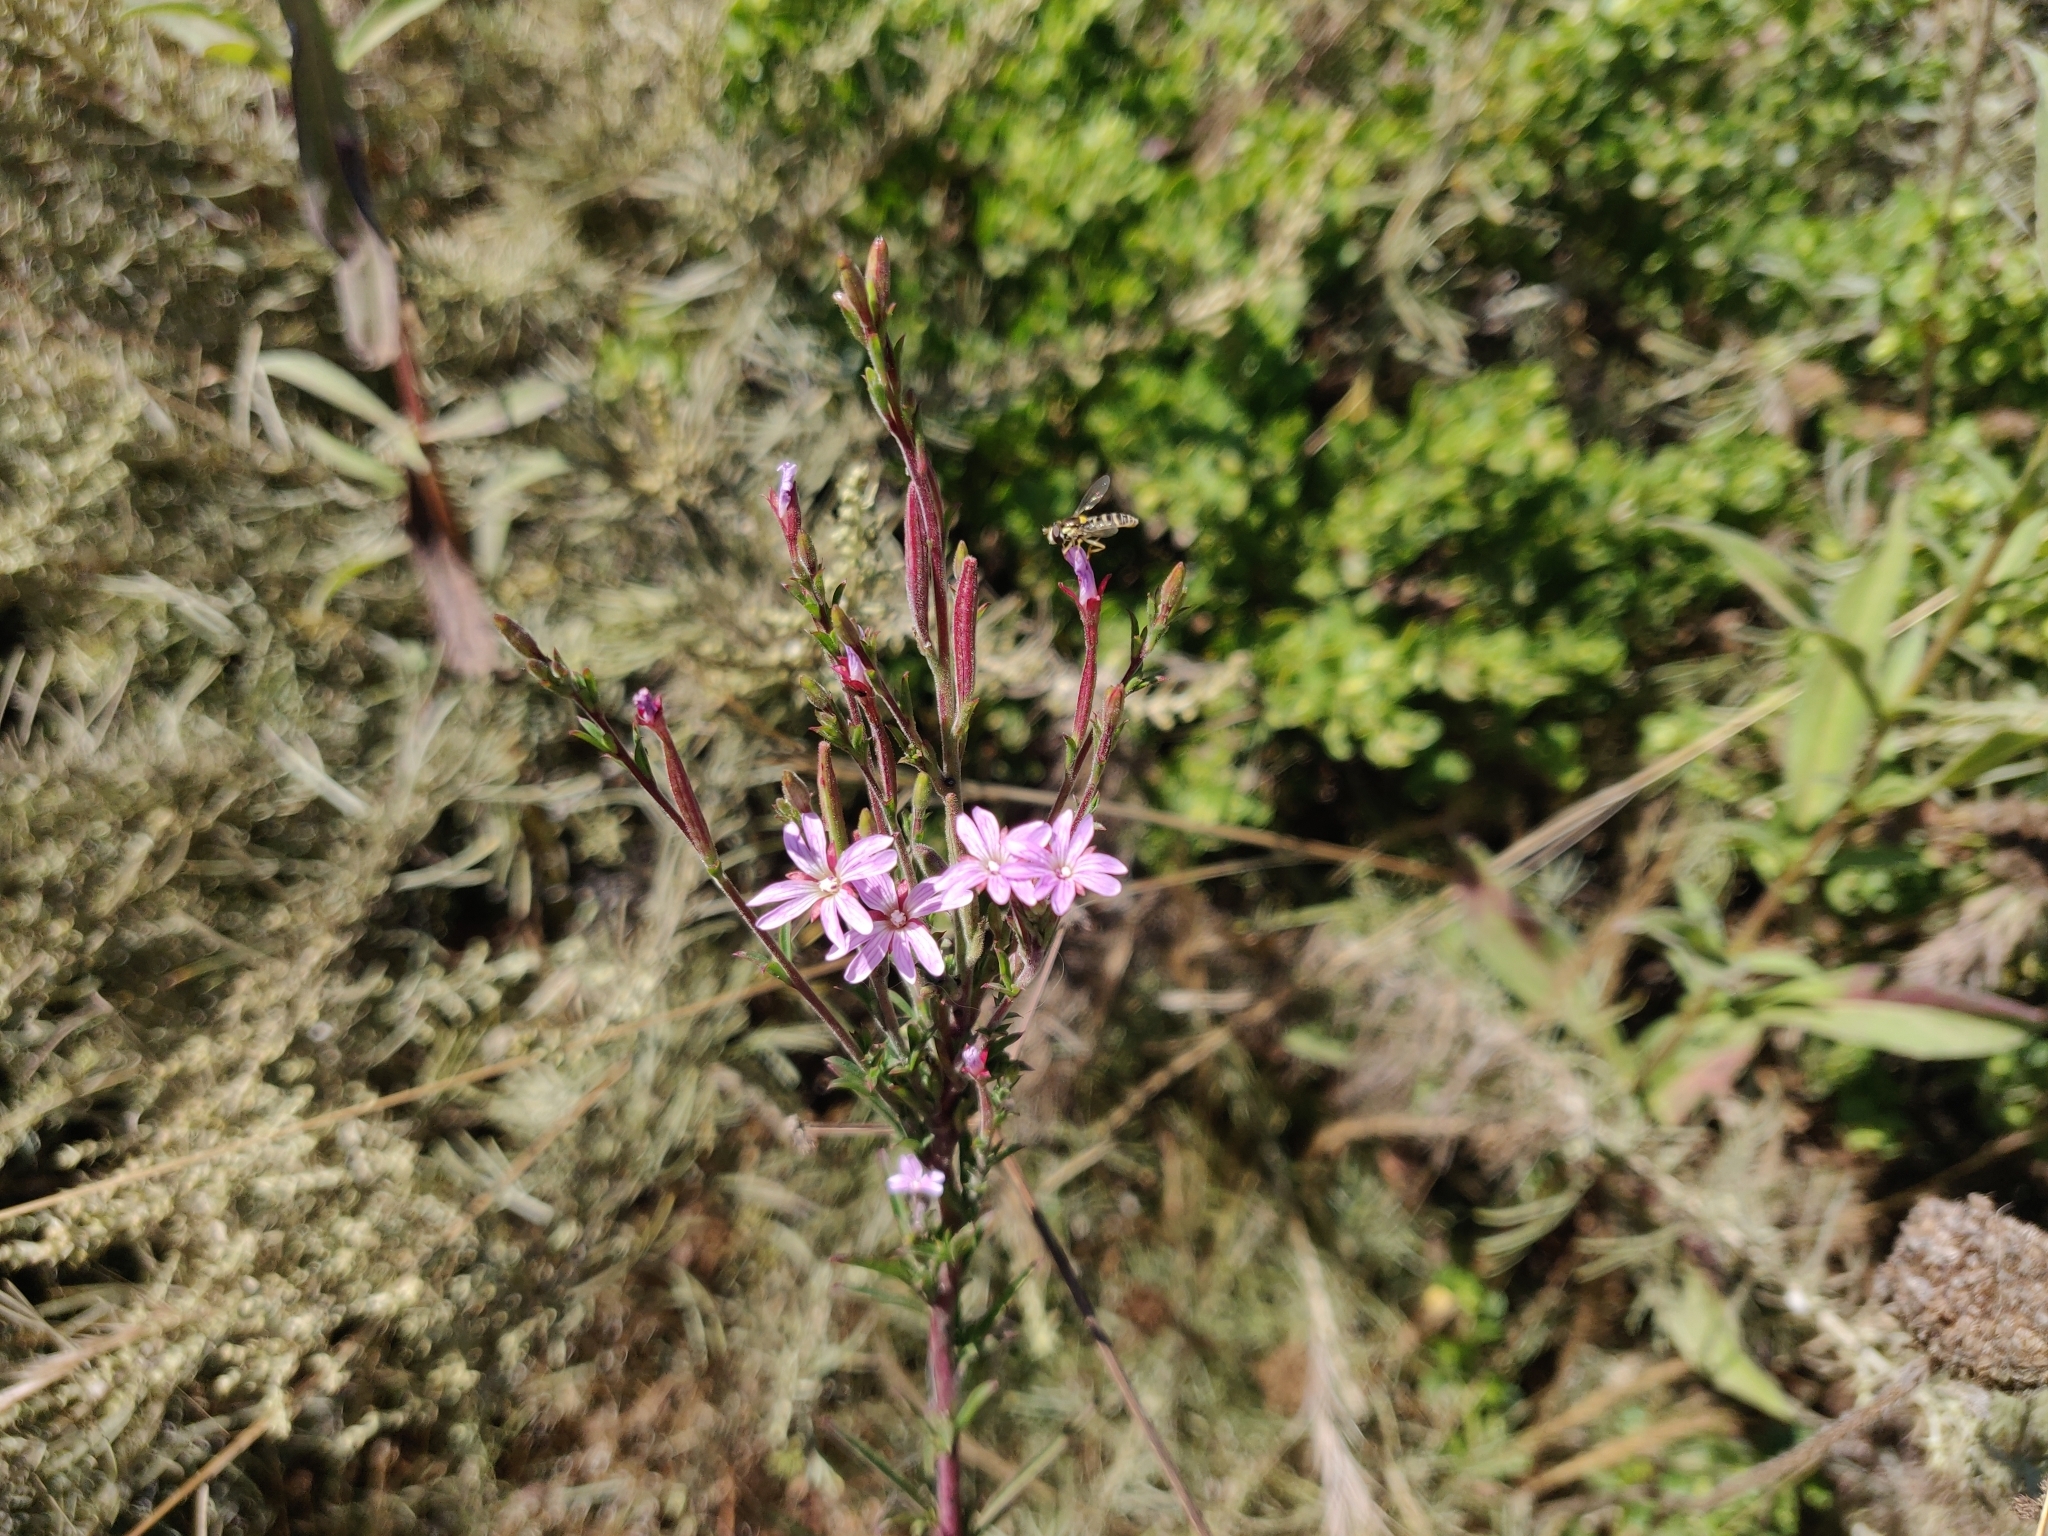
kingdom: Plantae
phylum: Tracheophyta
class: Magnoliopsida
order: Myrtales
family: Onagraceae
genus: Epilobium
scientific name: Epilobium brachycarpum
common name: Annual willowherb
